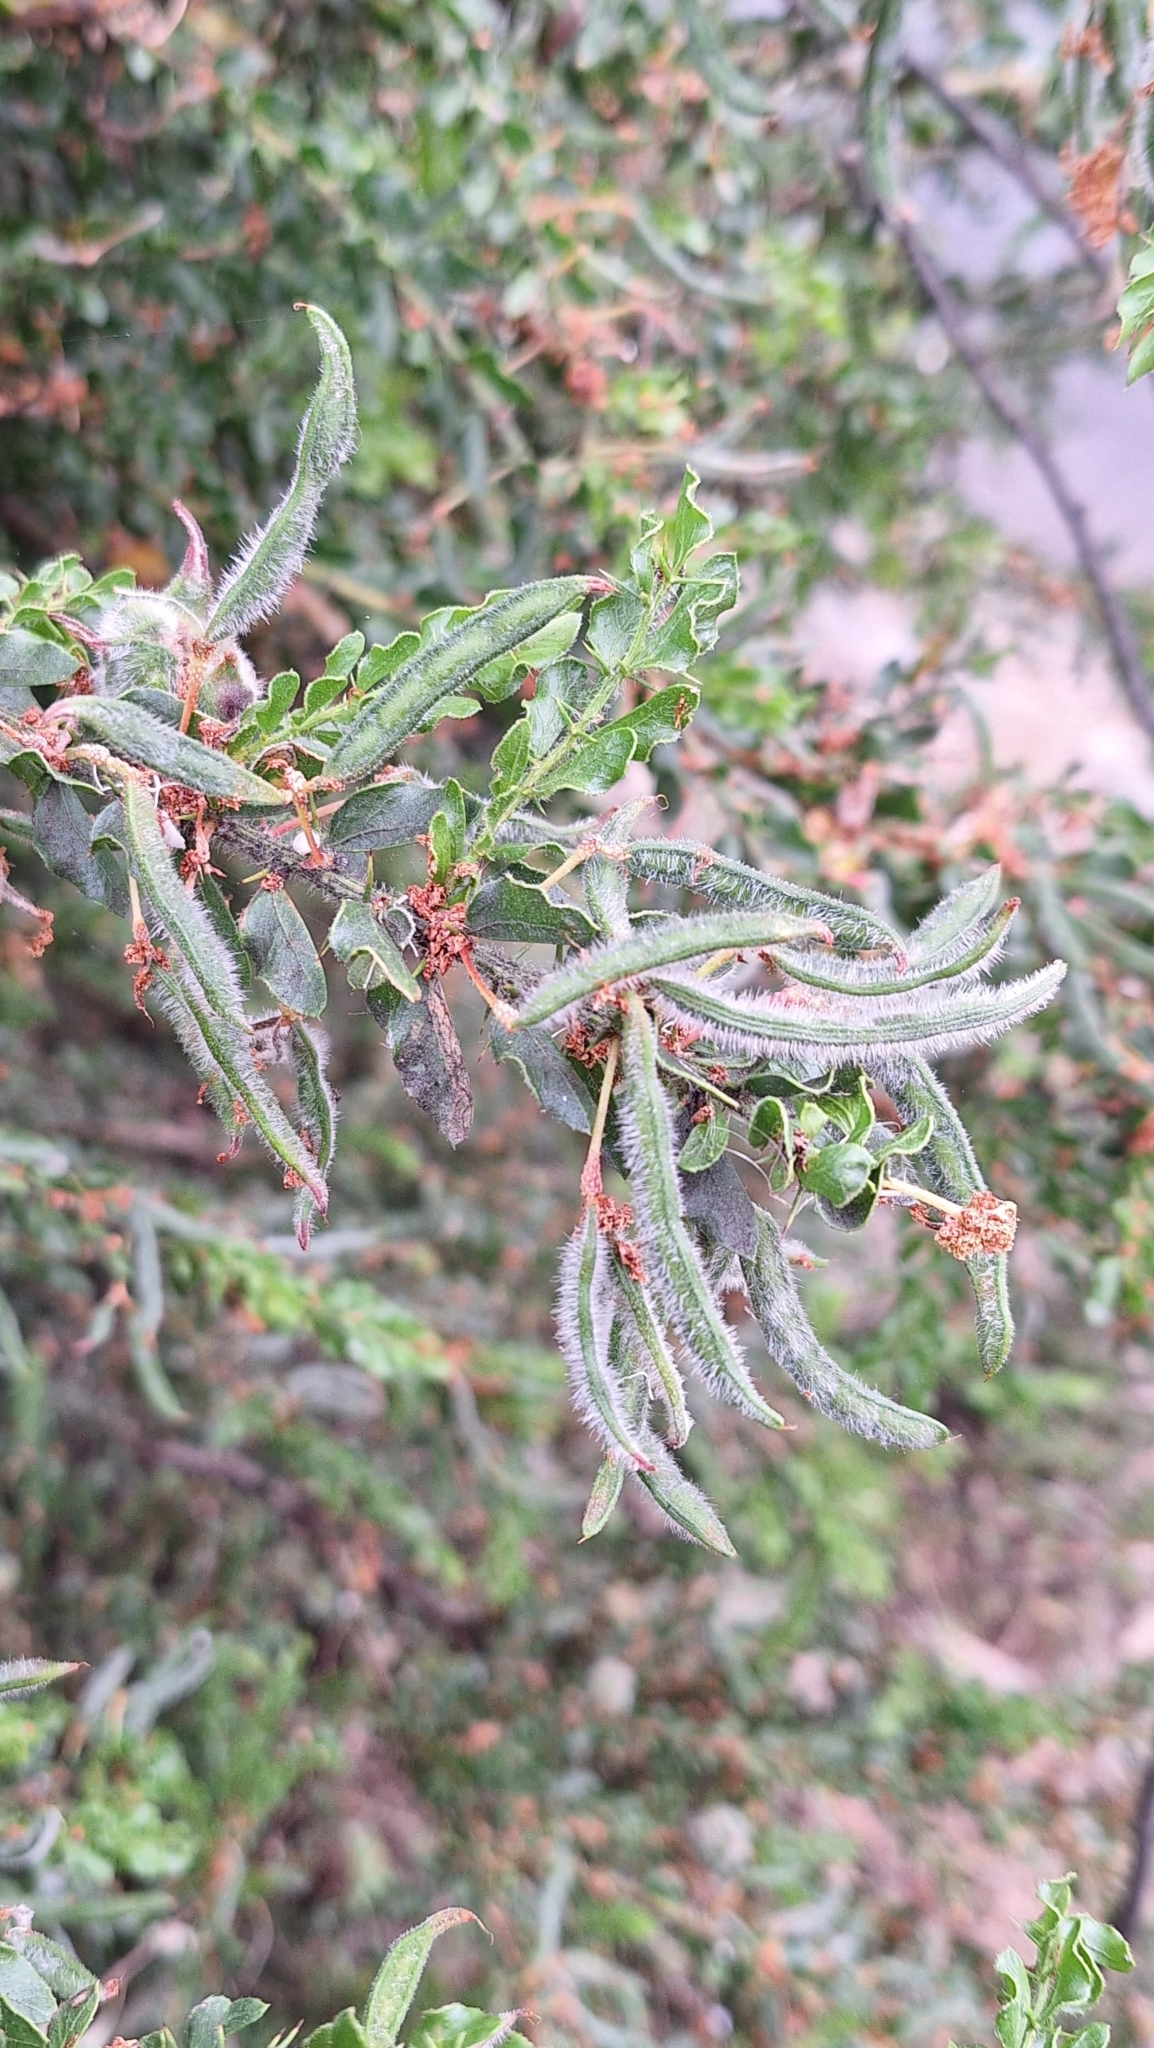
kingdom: Plantae
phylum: Tracheophyta
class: Magnoliopsida
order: Fabales
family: Fabaceae
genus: Acacia
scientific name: Acacia paradoxa
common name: Paradox acacia
